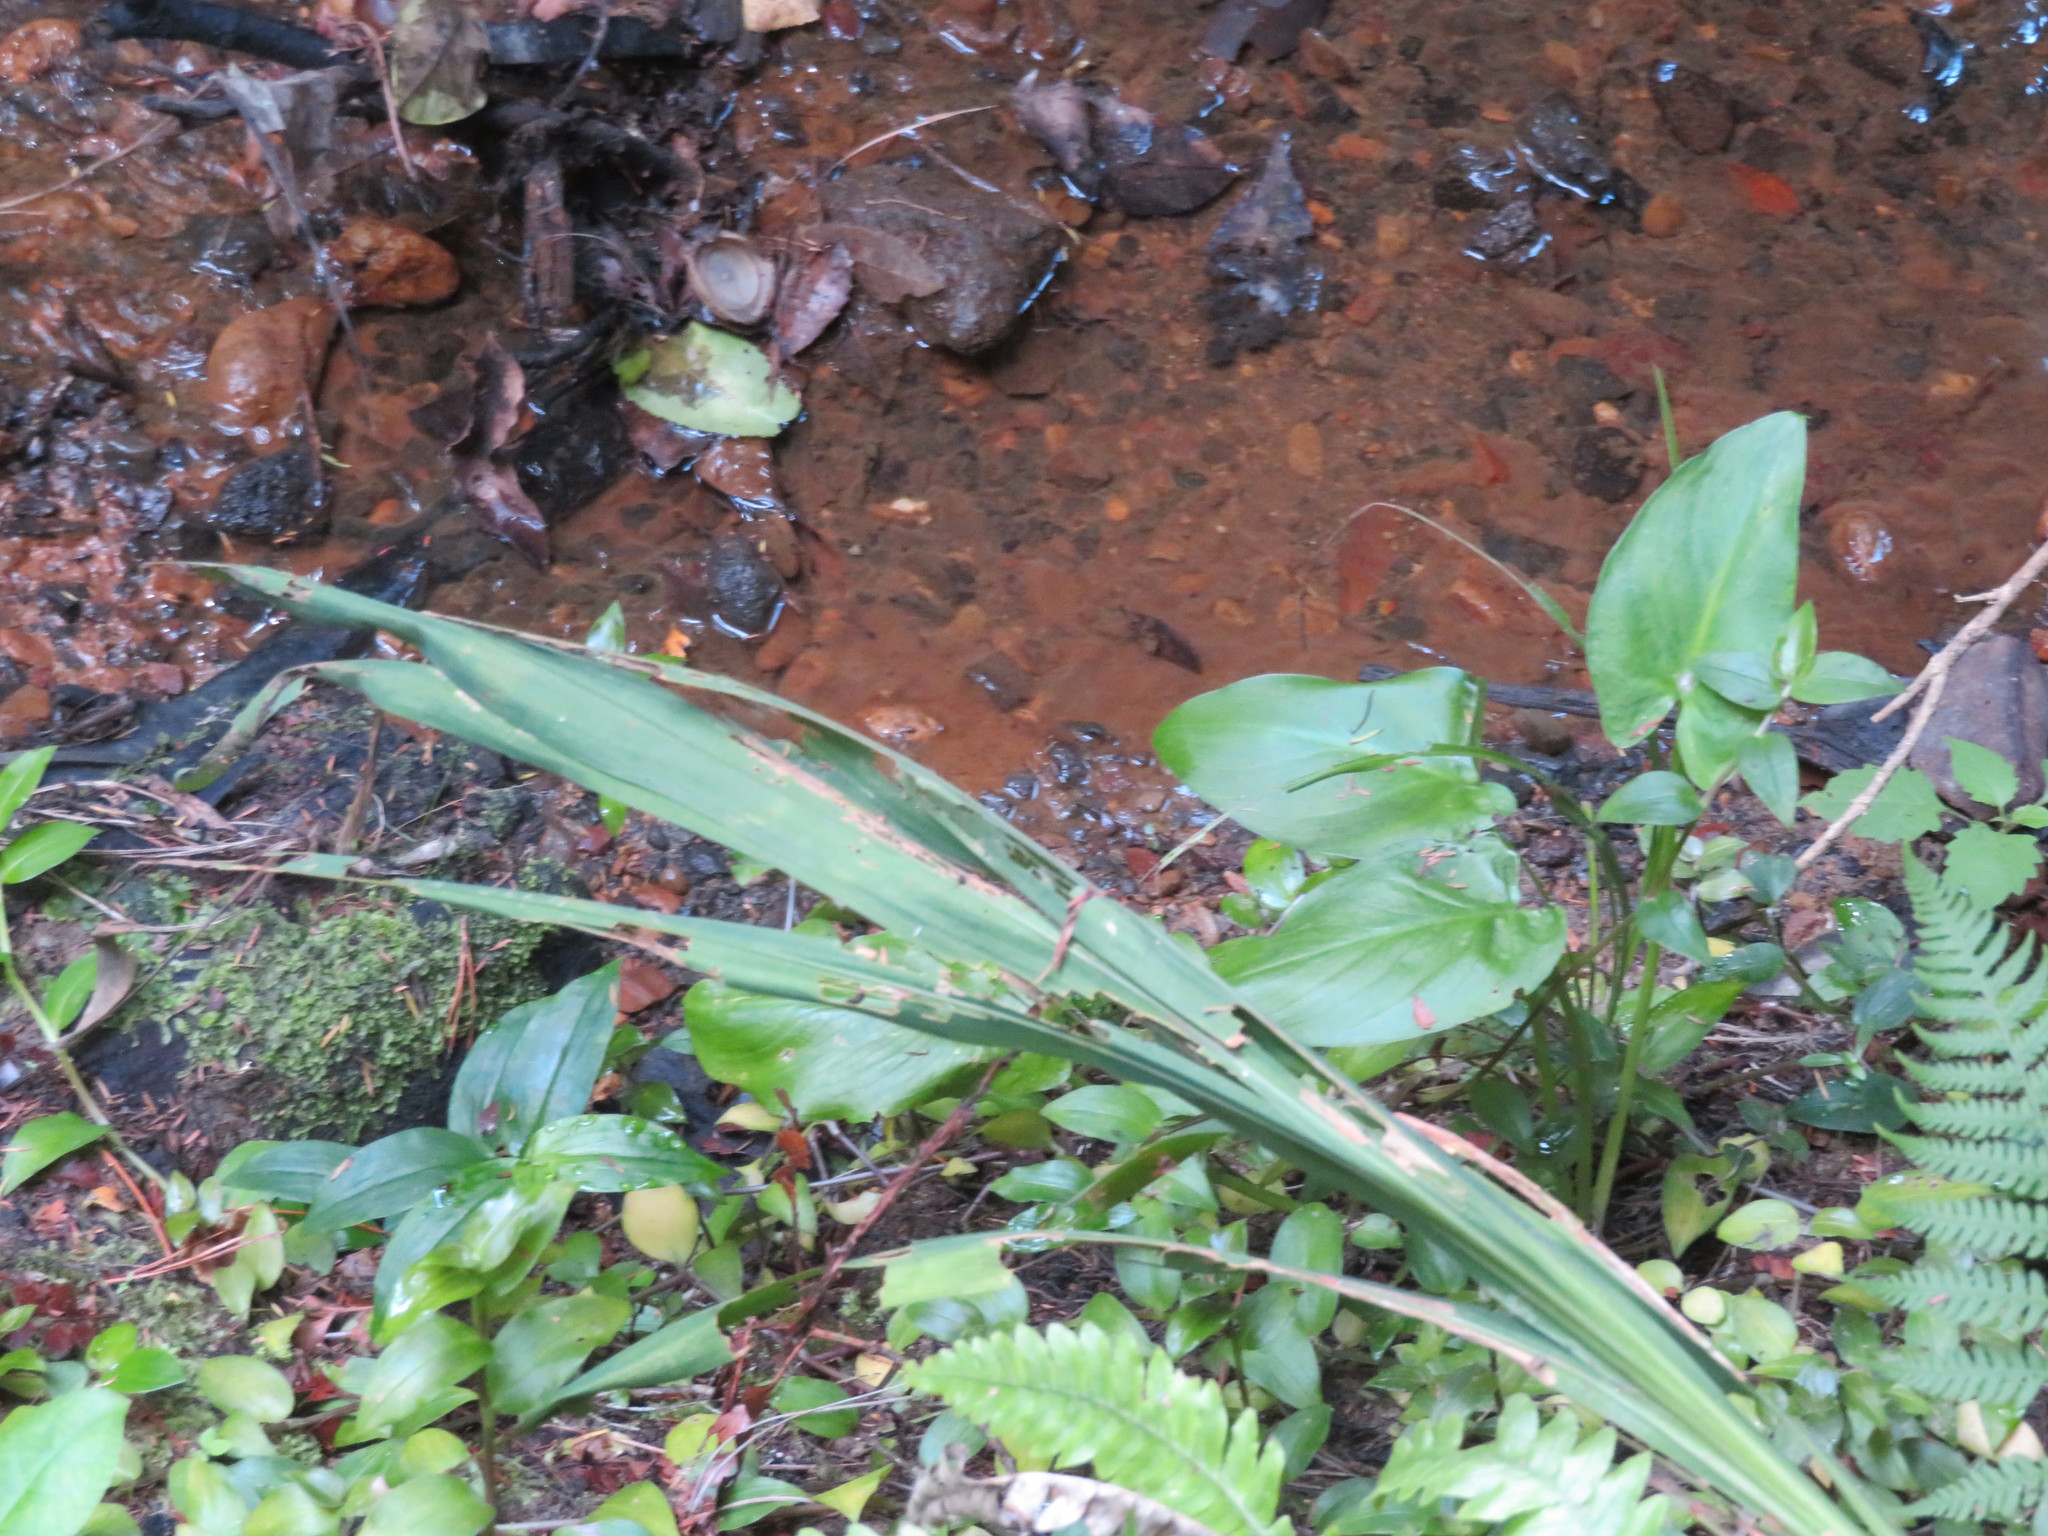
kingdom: Plantae
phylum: Tracheophyta
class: Liliopsida
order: Alismatales
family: Araceae
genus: Zantedeschia
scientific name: Zantedeschia aethiopica
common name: Altar-lily
